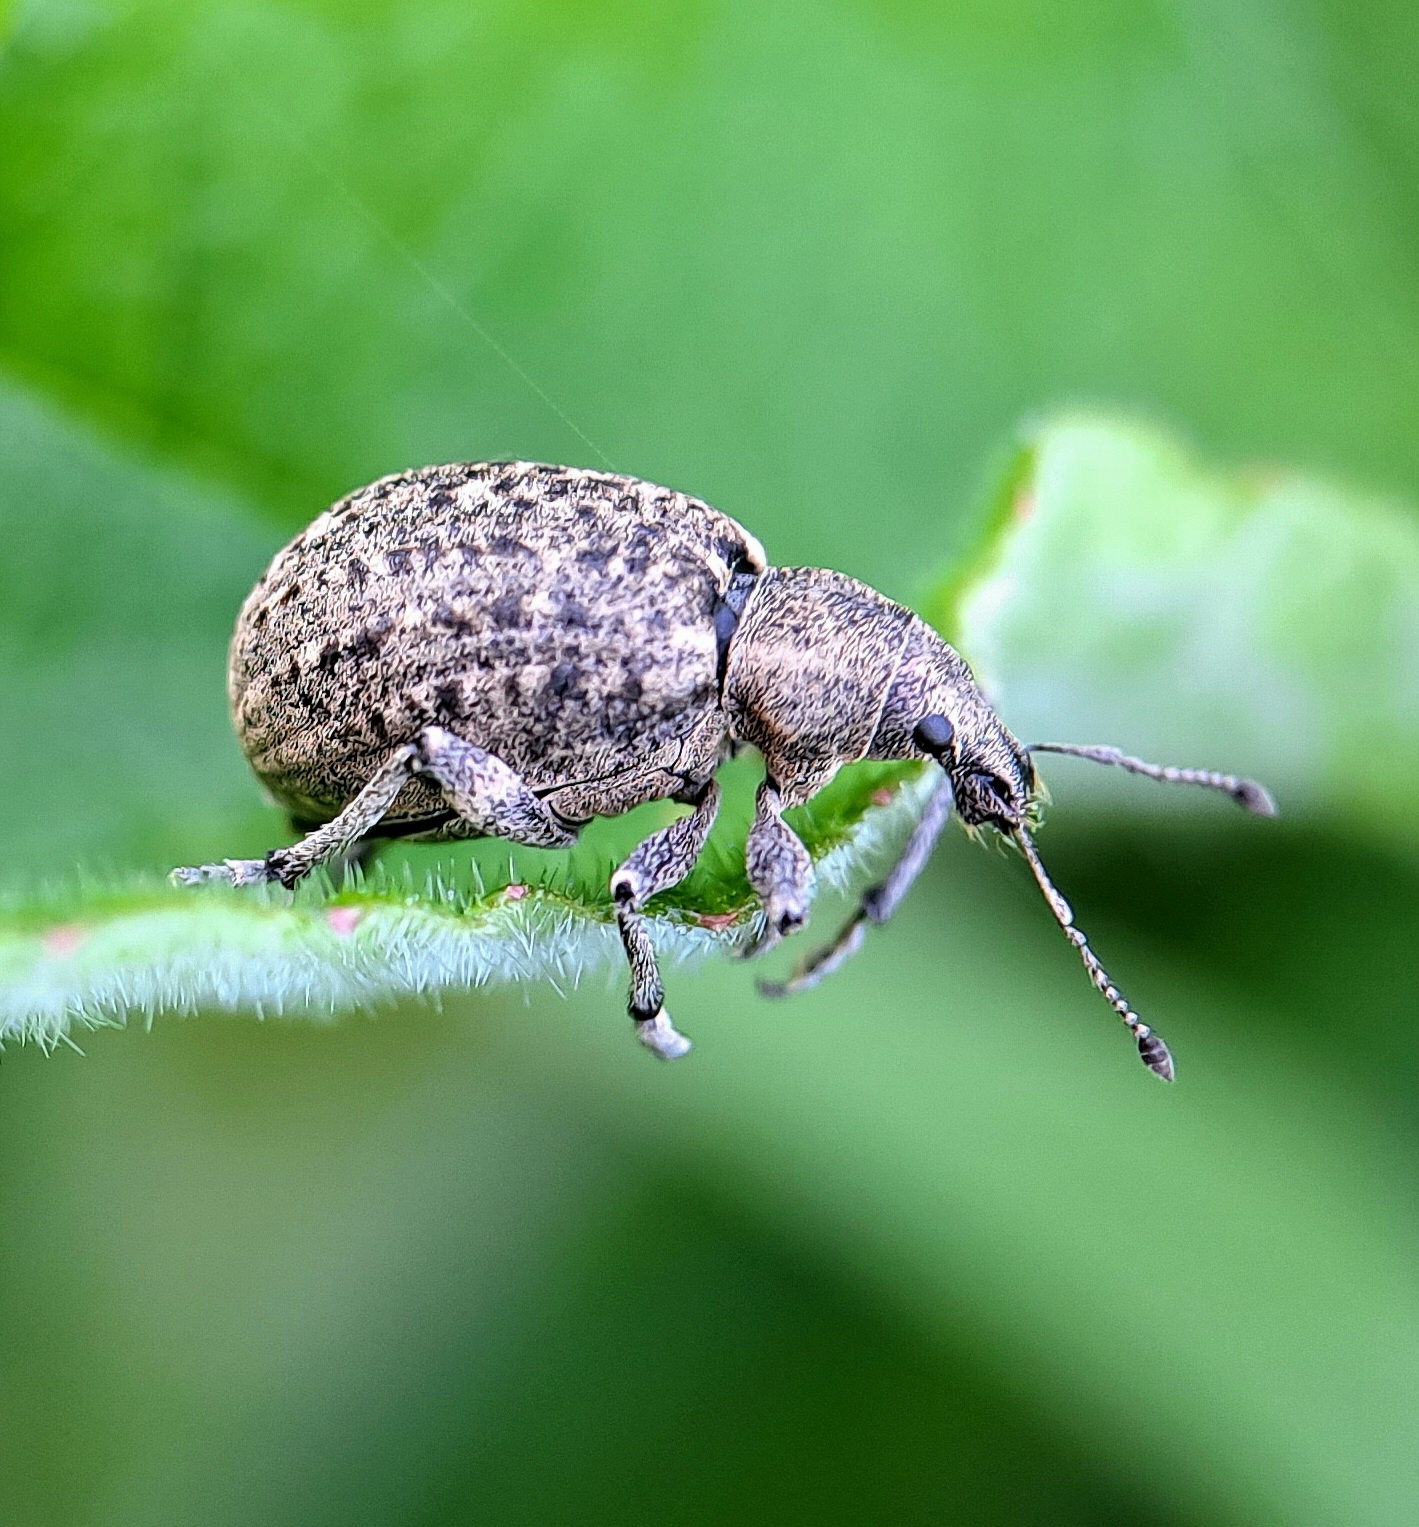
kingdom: Animalia
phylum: Arthropoda
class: Insecta
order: Coleoptera
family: Curculionidae
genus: Liophloeus
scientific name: Liophloeus tessulatus
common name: Weevil
